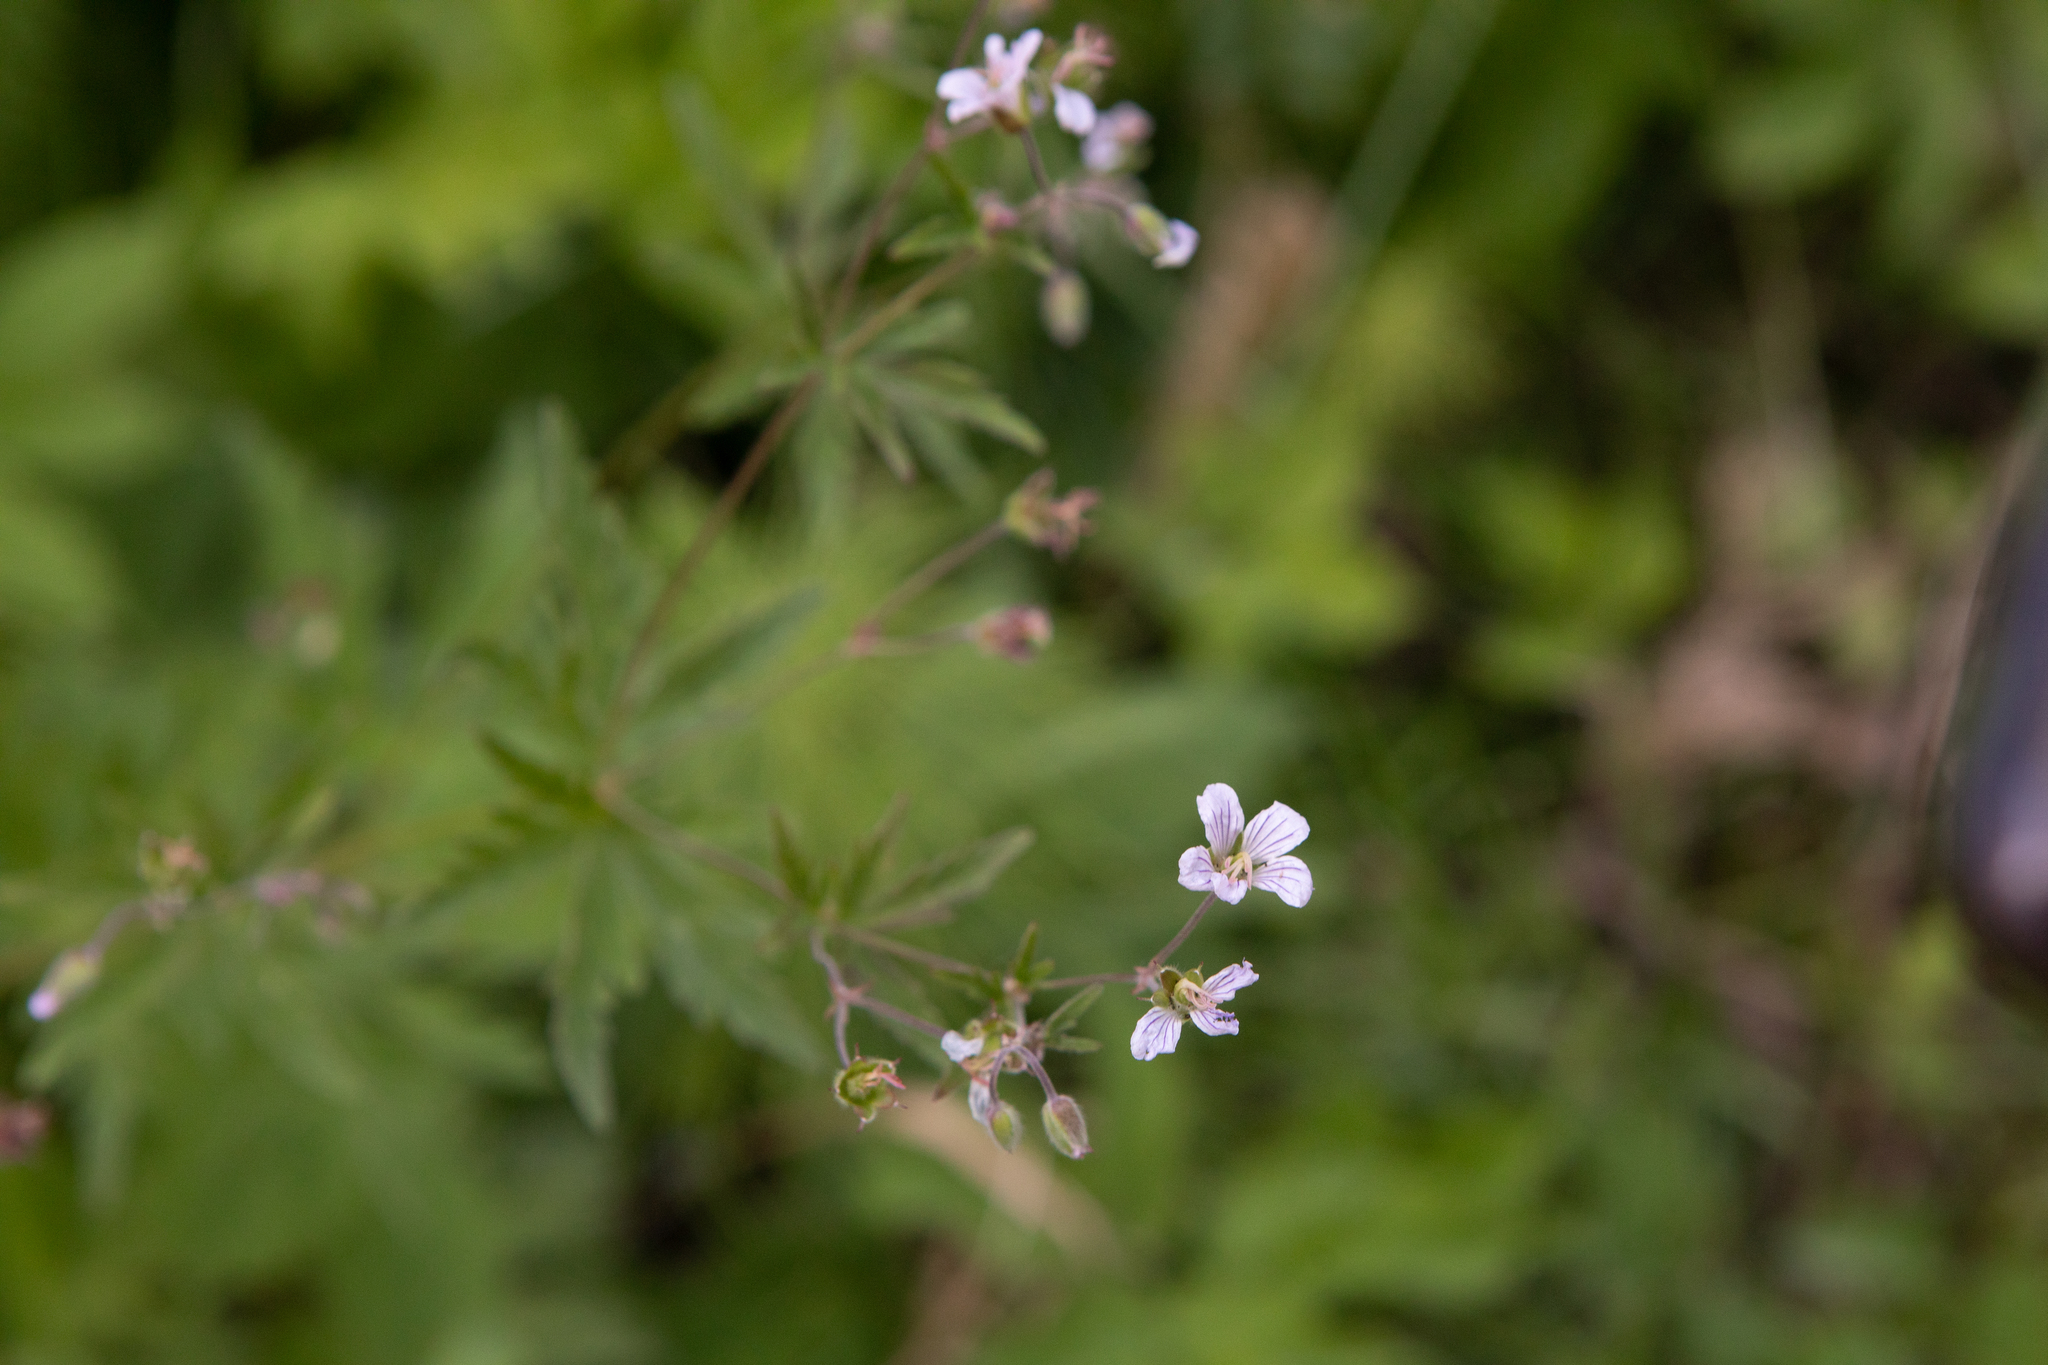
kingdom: Plantae
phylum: Tracheophyta
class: Magnoliopsida
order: Geraniales
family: Geraniaceae
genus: Geranium
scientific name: Geranium pseudosibiricum
